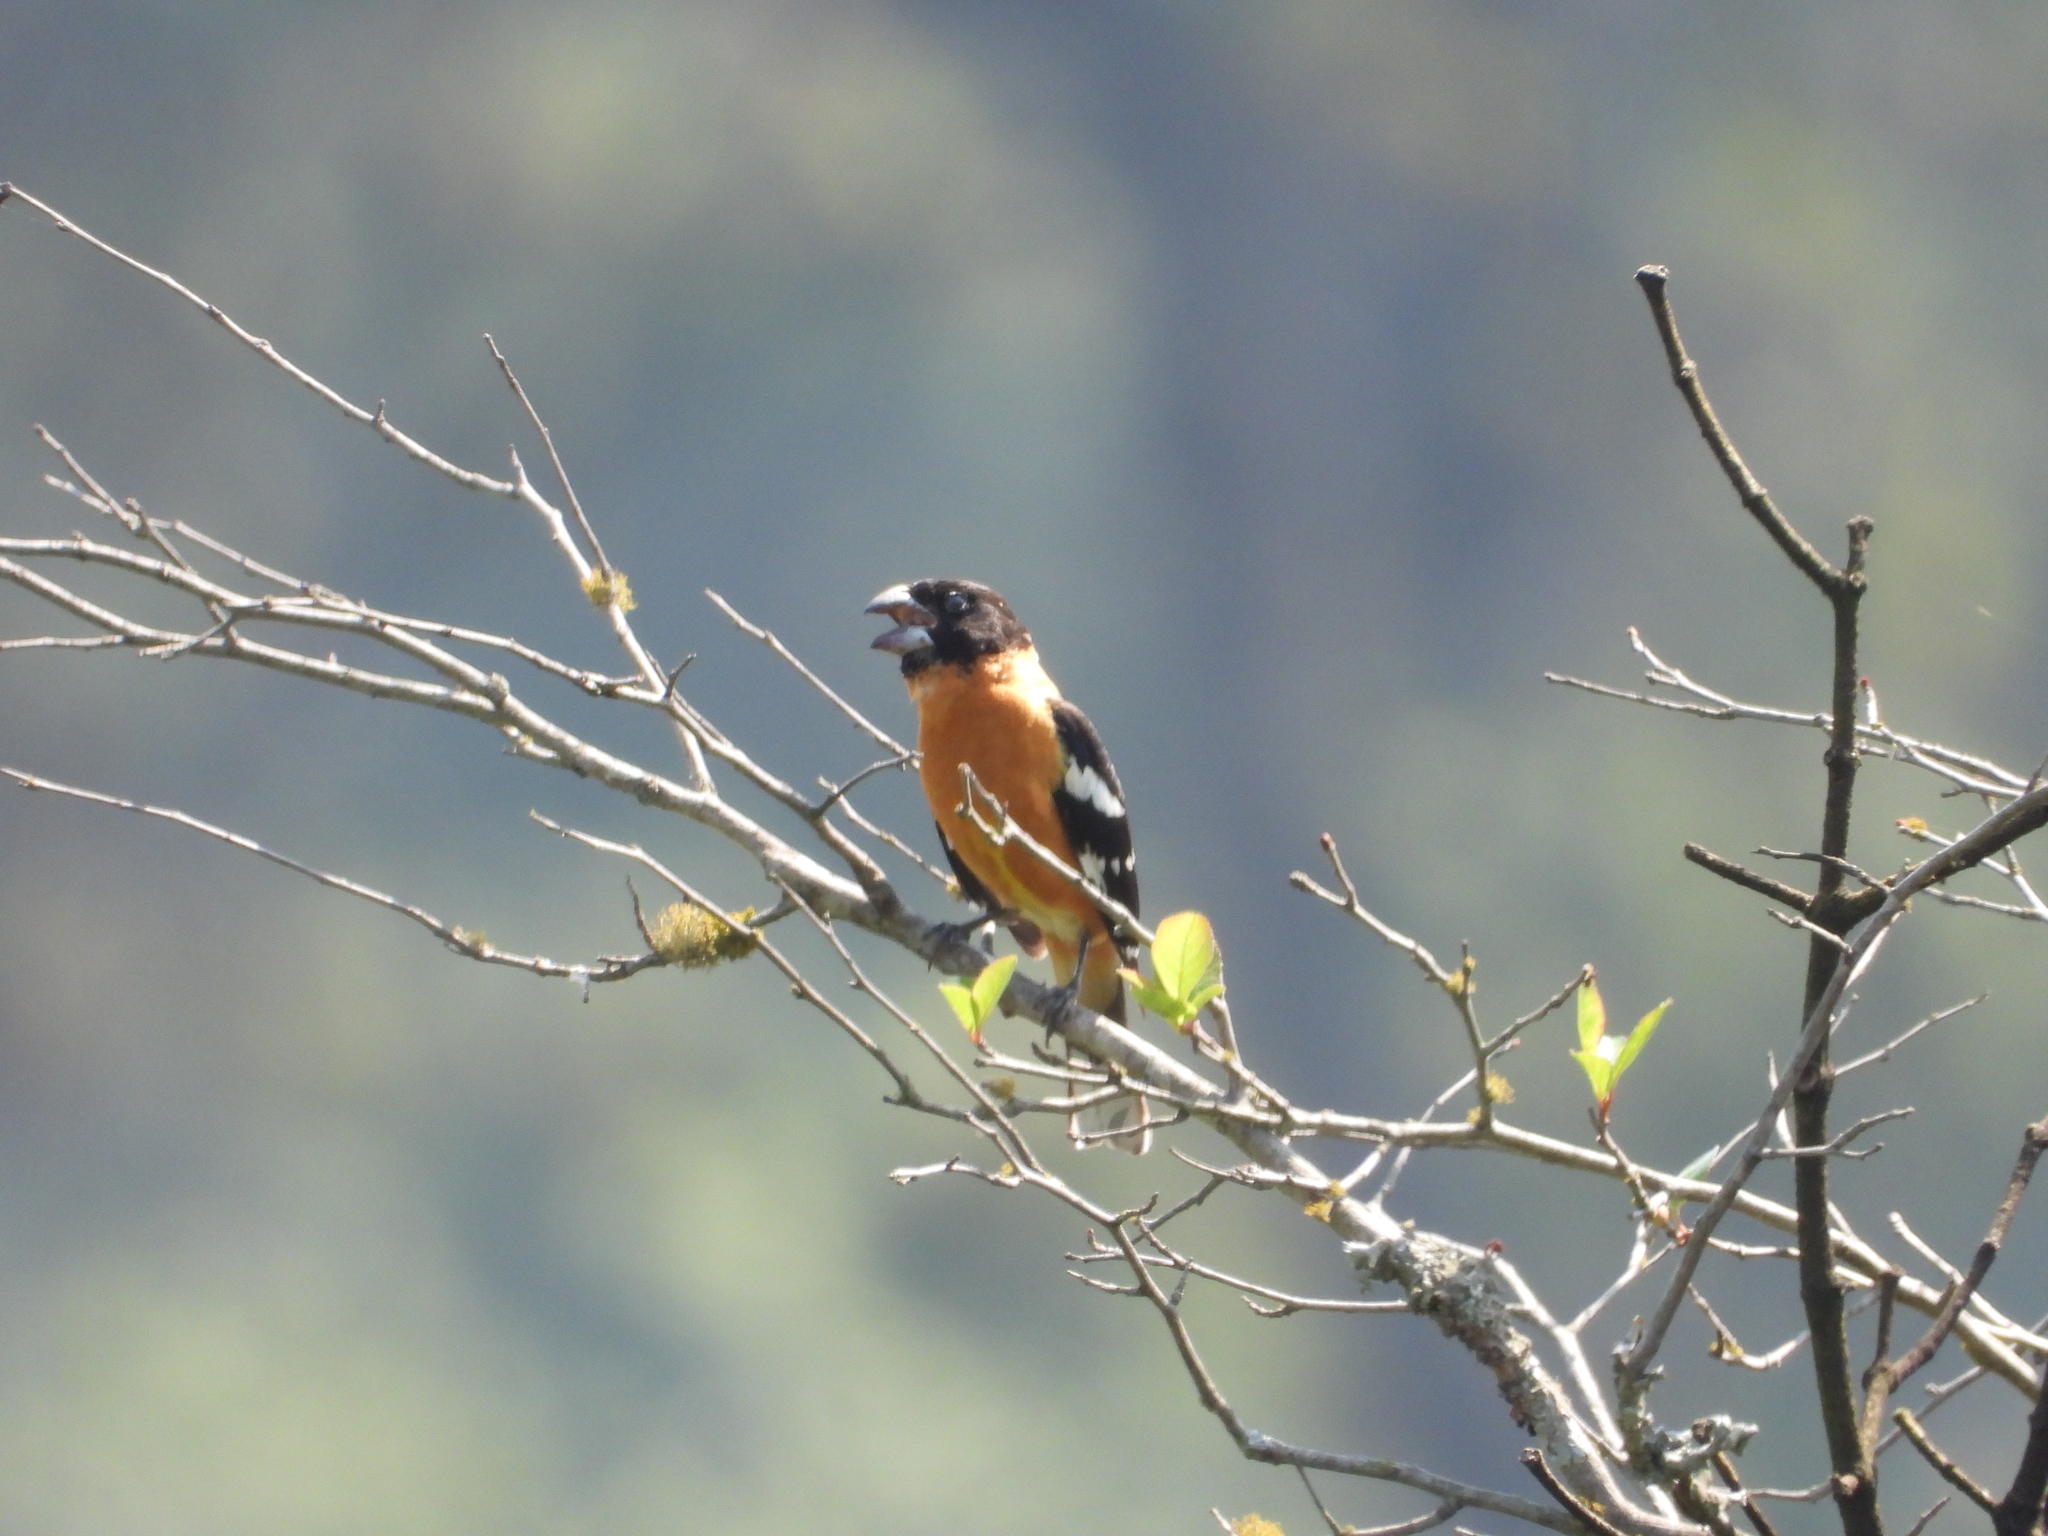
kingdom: Animalia
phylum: Chordata
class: Aves
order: Passeriformes
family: Cardinalidae
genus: Pheucticus
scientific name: Pheucticus melanocephalus
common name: Black-headed grosbeak
